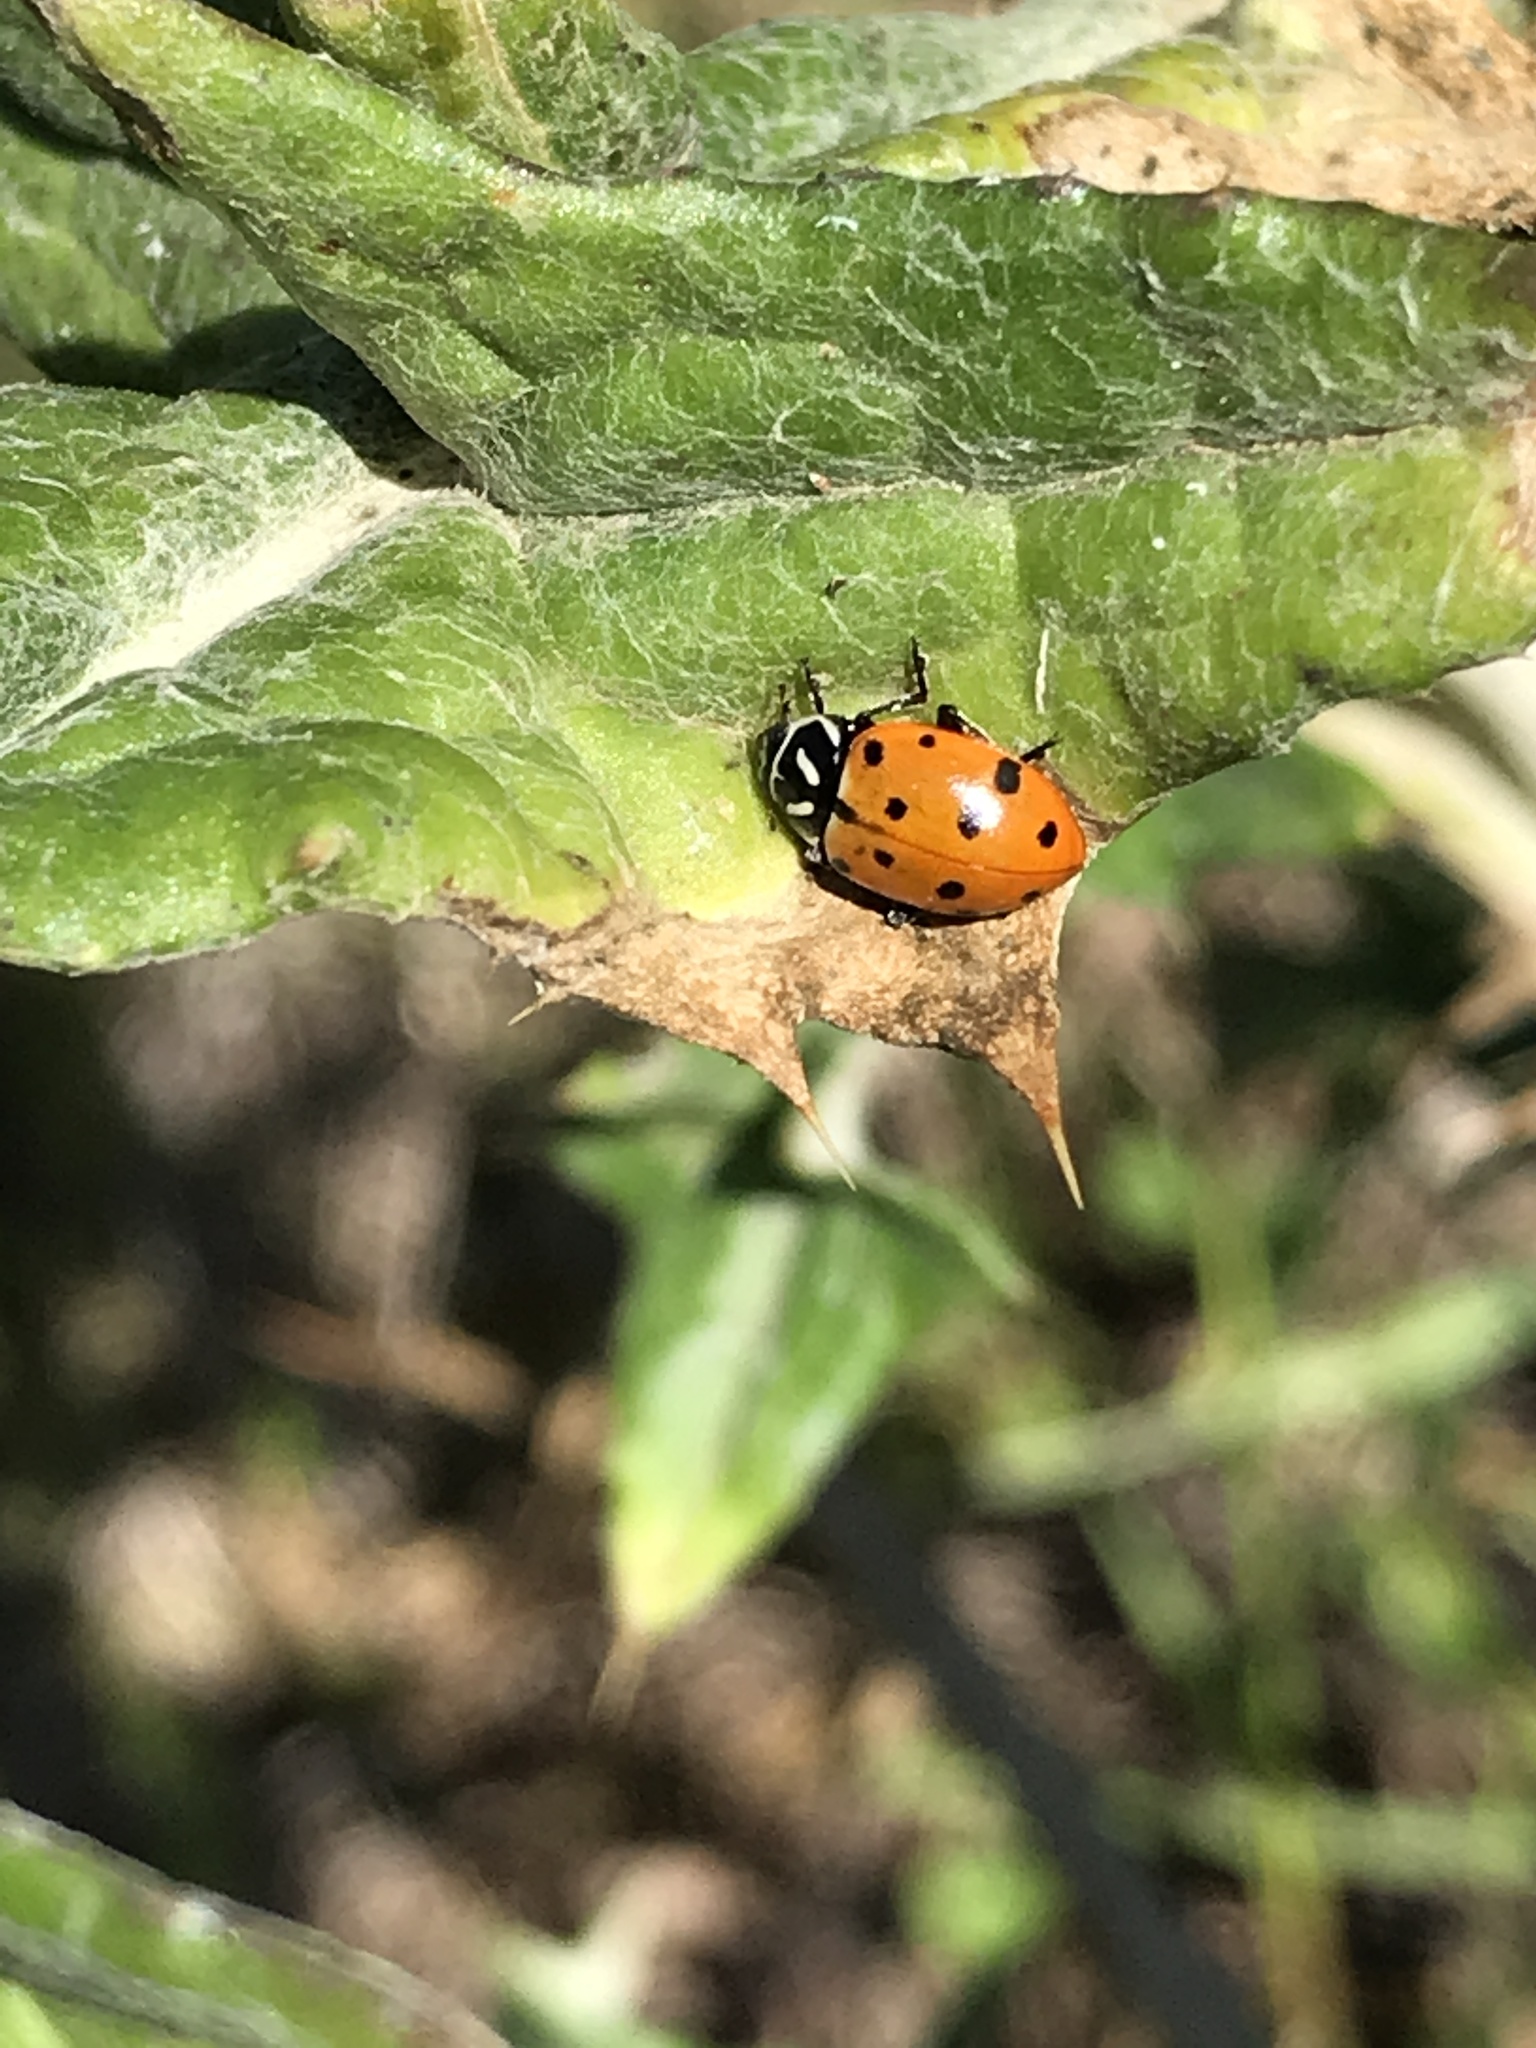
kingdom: Animalia
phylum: Arthropoda
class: Insecta
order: Coleoptera
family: Coccinellidae
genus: Hippodamia
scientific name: Hippodamia convergens
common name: Convergent lady beetle
